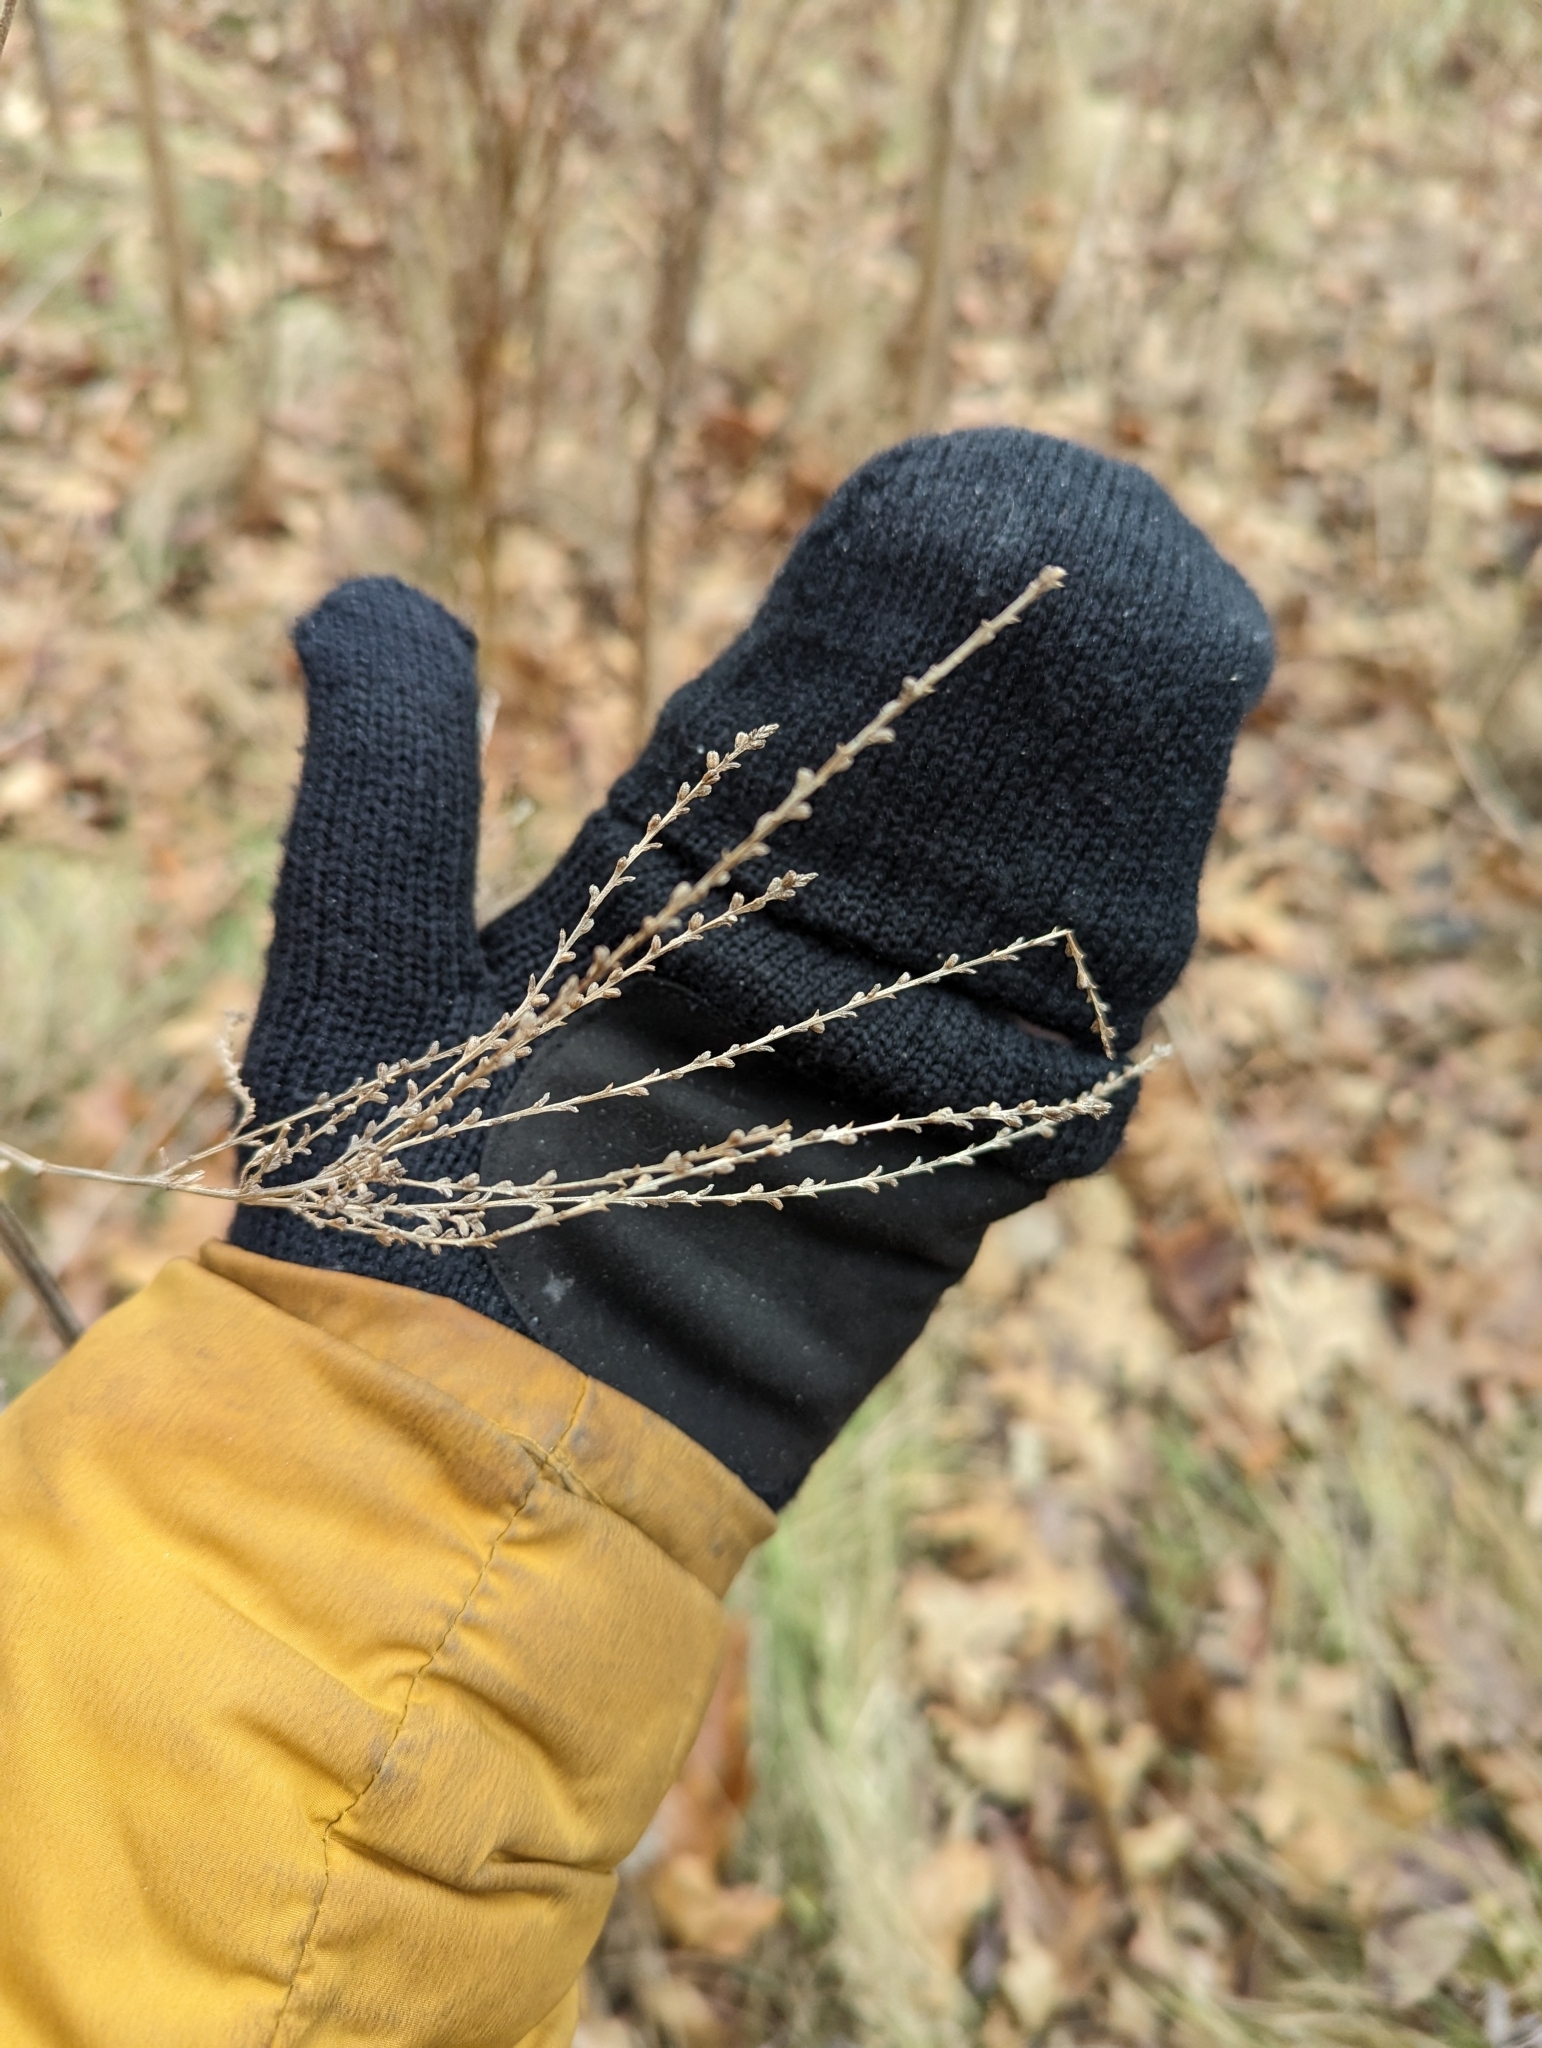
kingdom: Plantae
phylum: Tracheophyta
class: Magnoliopsida
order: Lamiales
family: Verbenaceae
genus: Verbena
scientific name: Verbena urticifolia
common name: Nettle-leaved vervain
